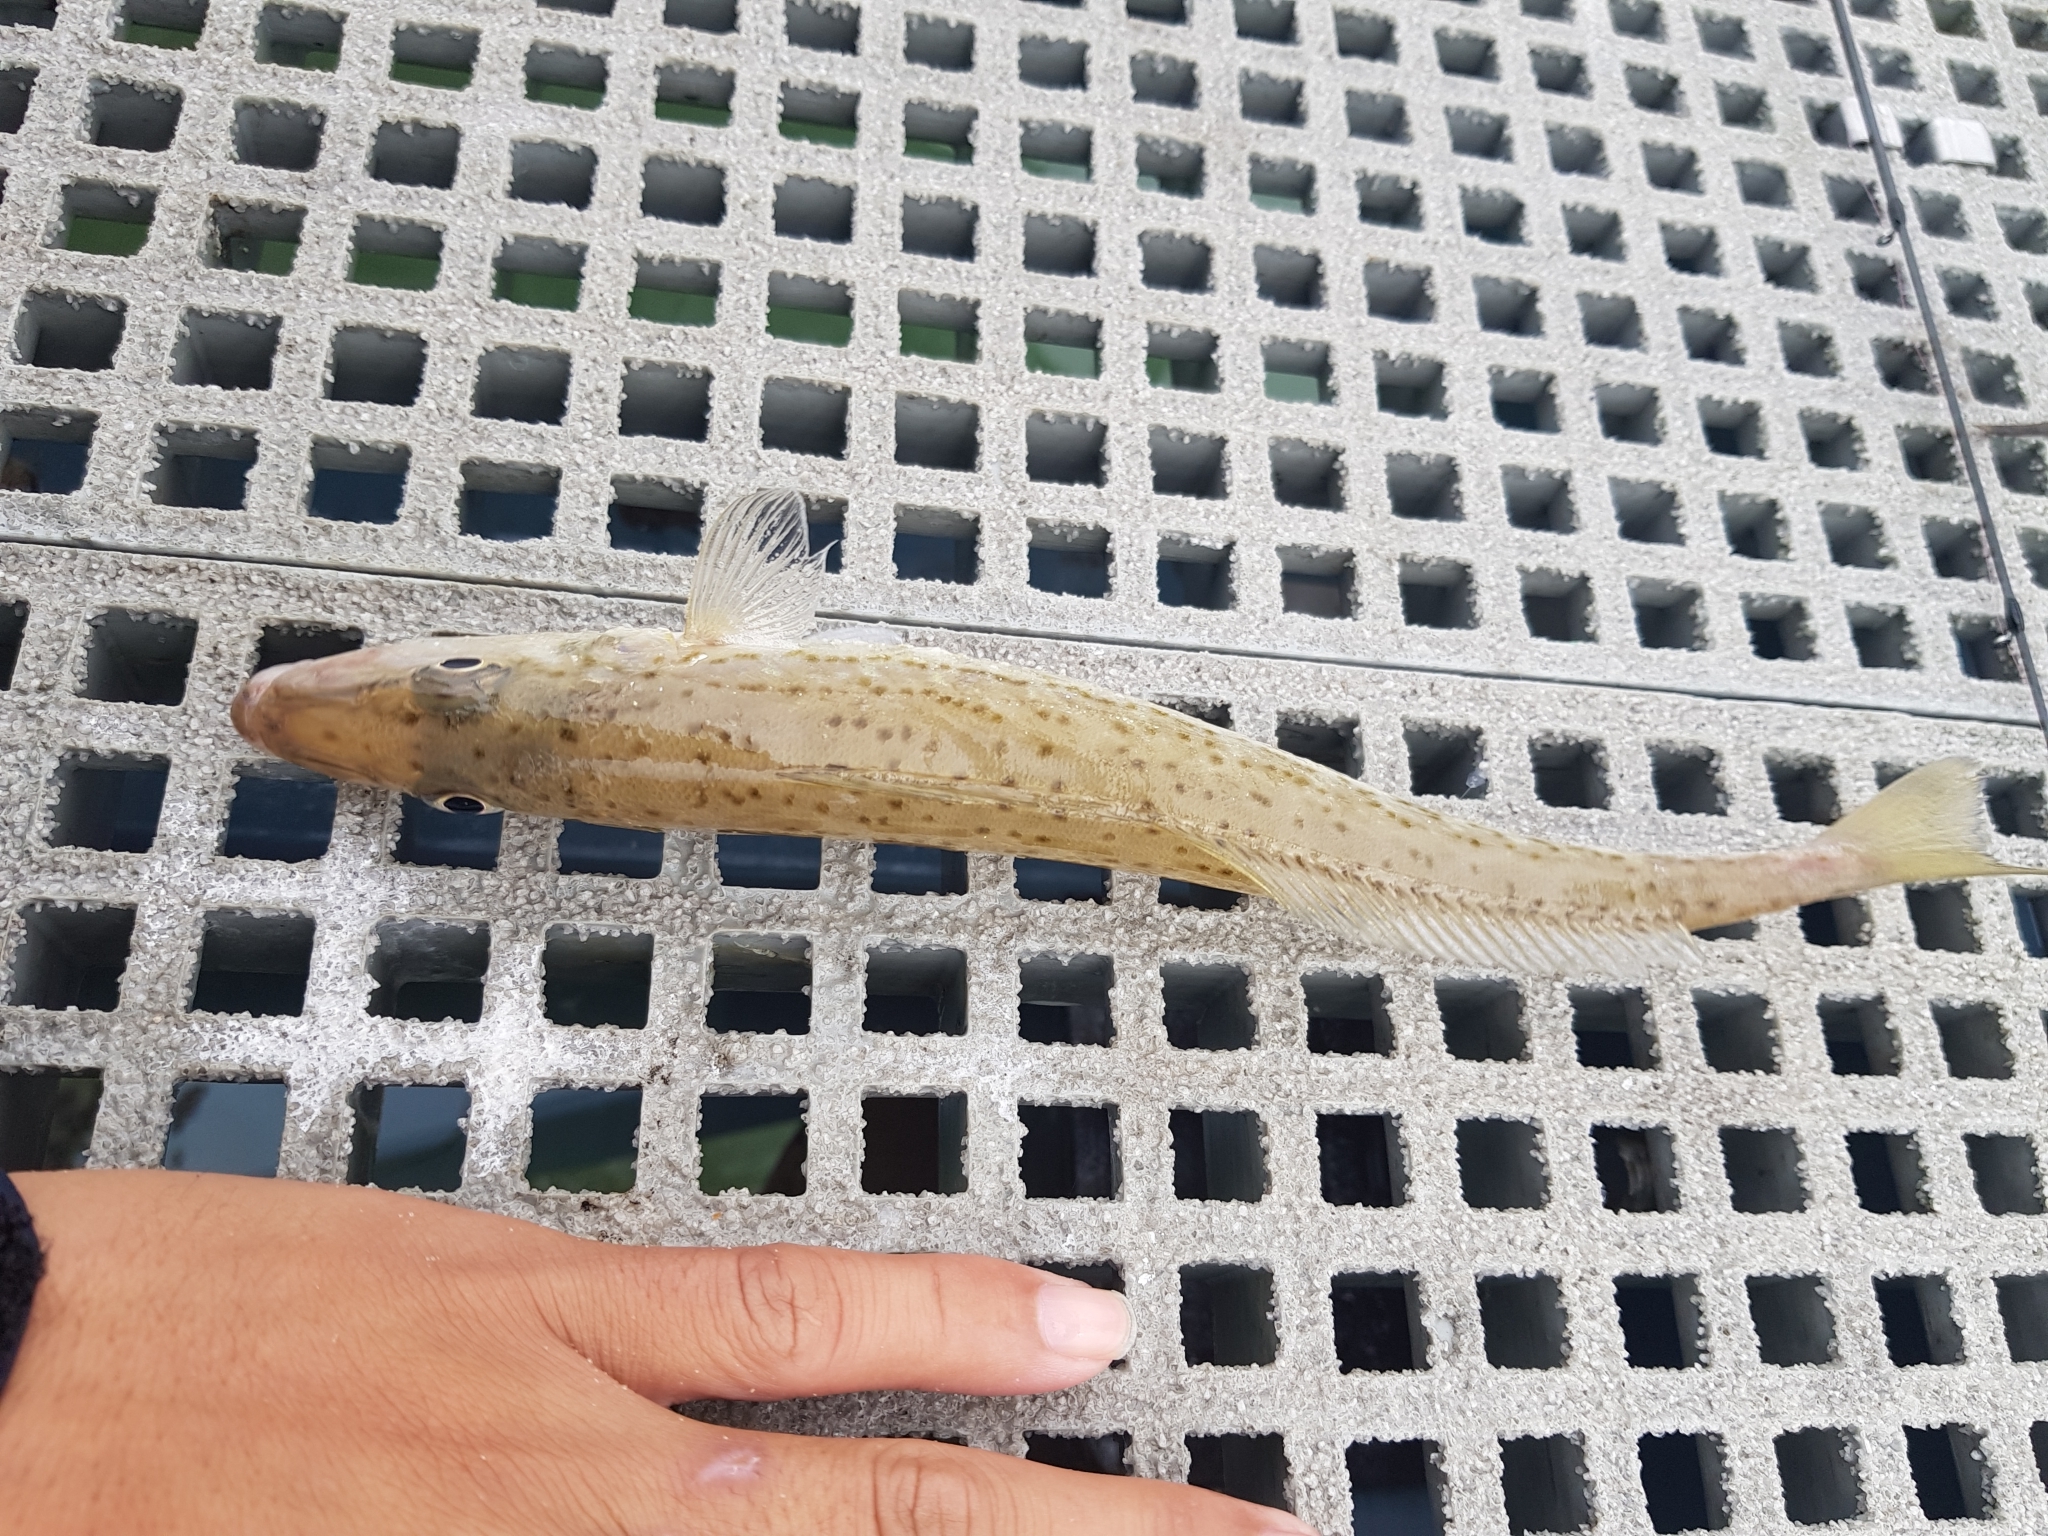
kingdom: Animalia
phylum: Chordata
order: Perciformes
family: Sillaginidae
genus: Sillaginodes
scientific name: Sillaginodes punctatus
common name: King george whiting
